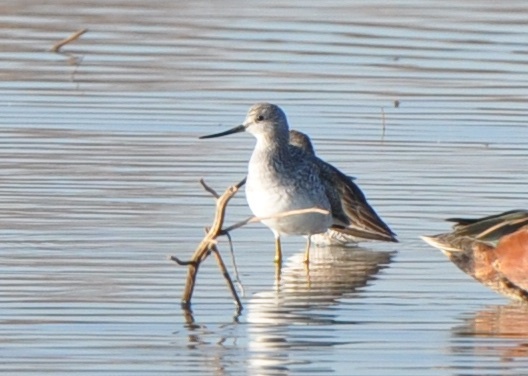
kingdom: Animalia
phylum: Chordata
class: Aves
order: Charadriiformes
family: Scolopacidae
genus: Tringa
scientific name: Tringa melanoleuca
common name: Greater yellowlegs
